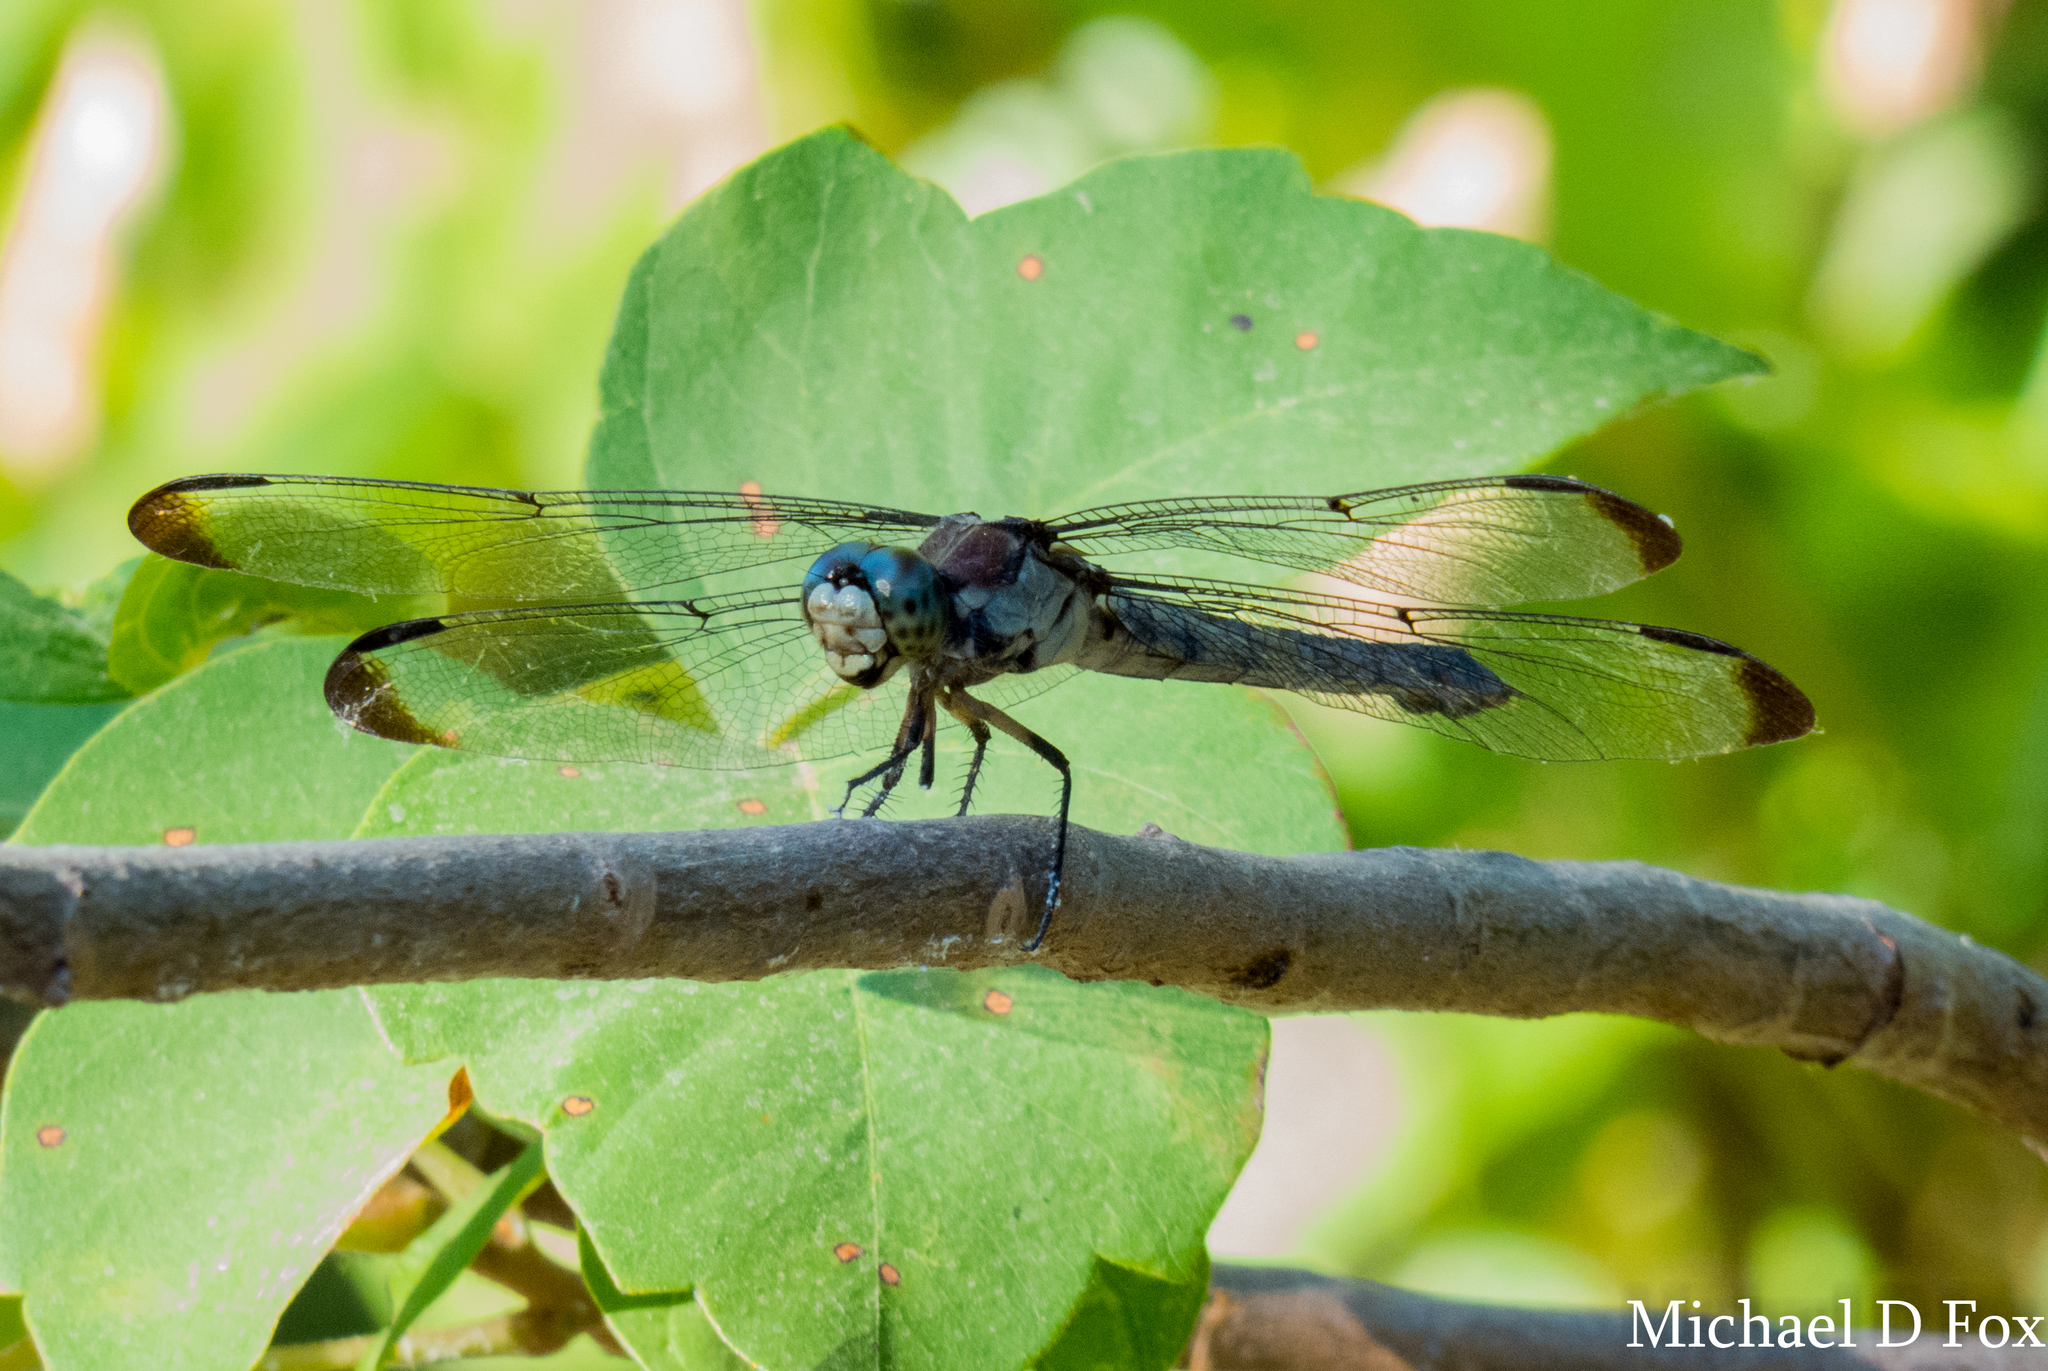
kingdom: Animalia
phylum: Arthropoda
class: Insecta
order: Odonata
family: Libellulidae
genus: Libellula
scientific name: Libellula vibrans
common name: Great blue skimmer
